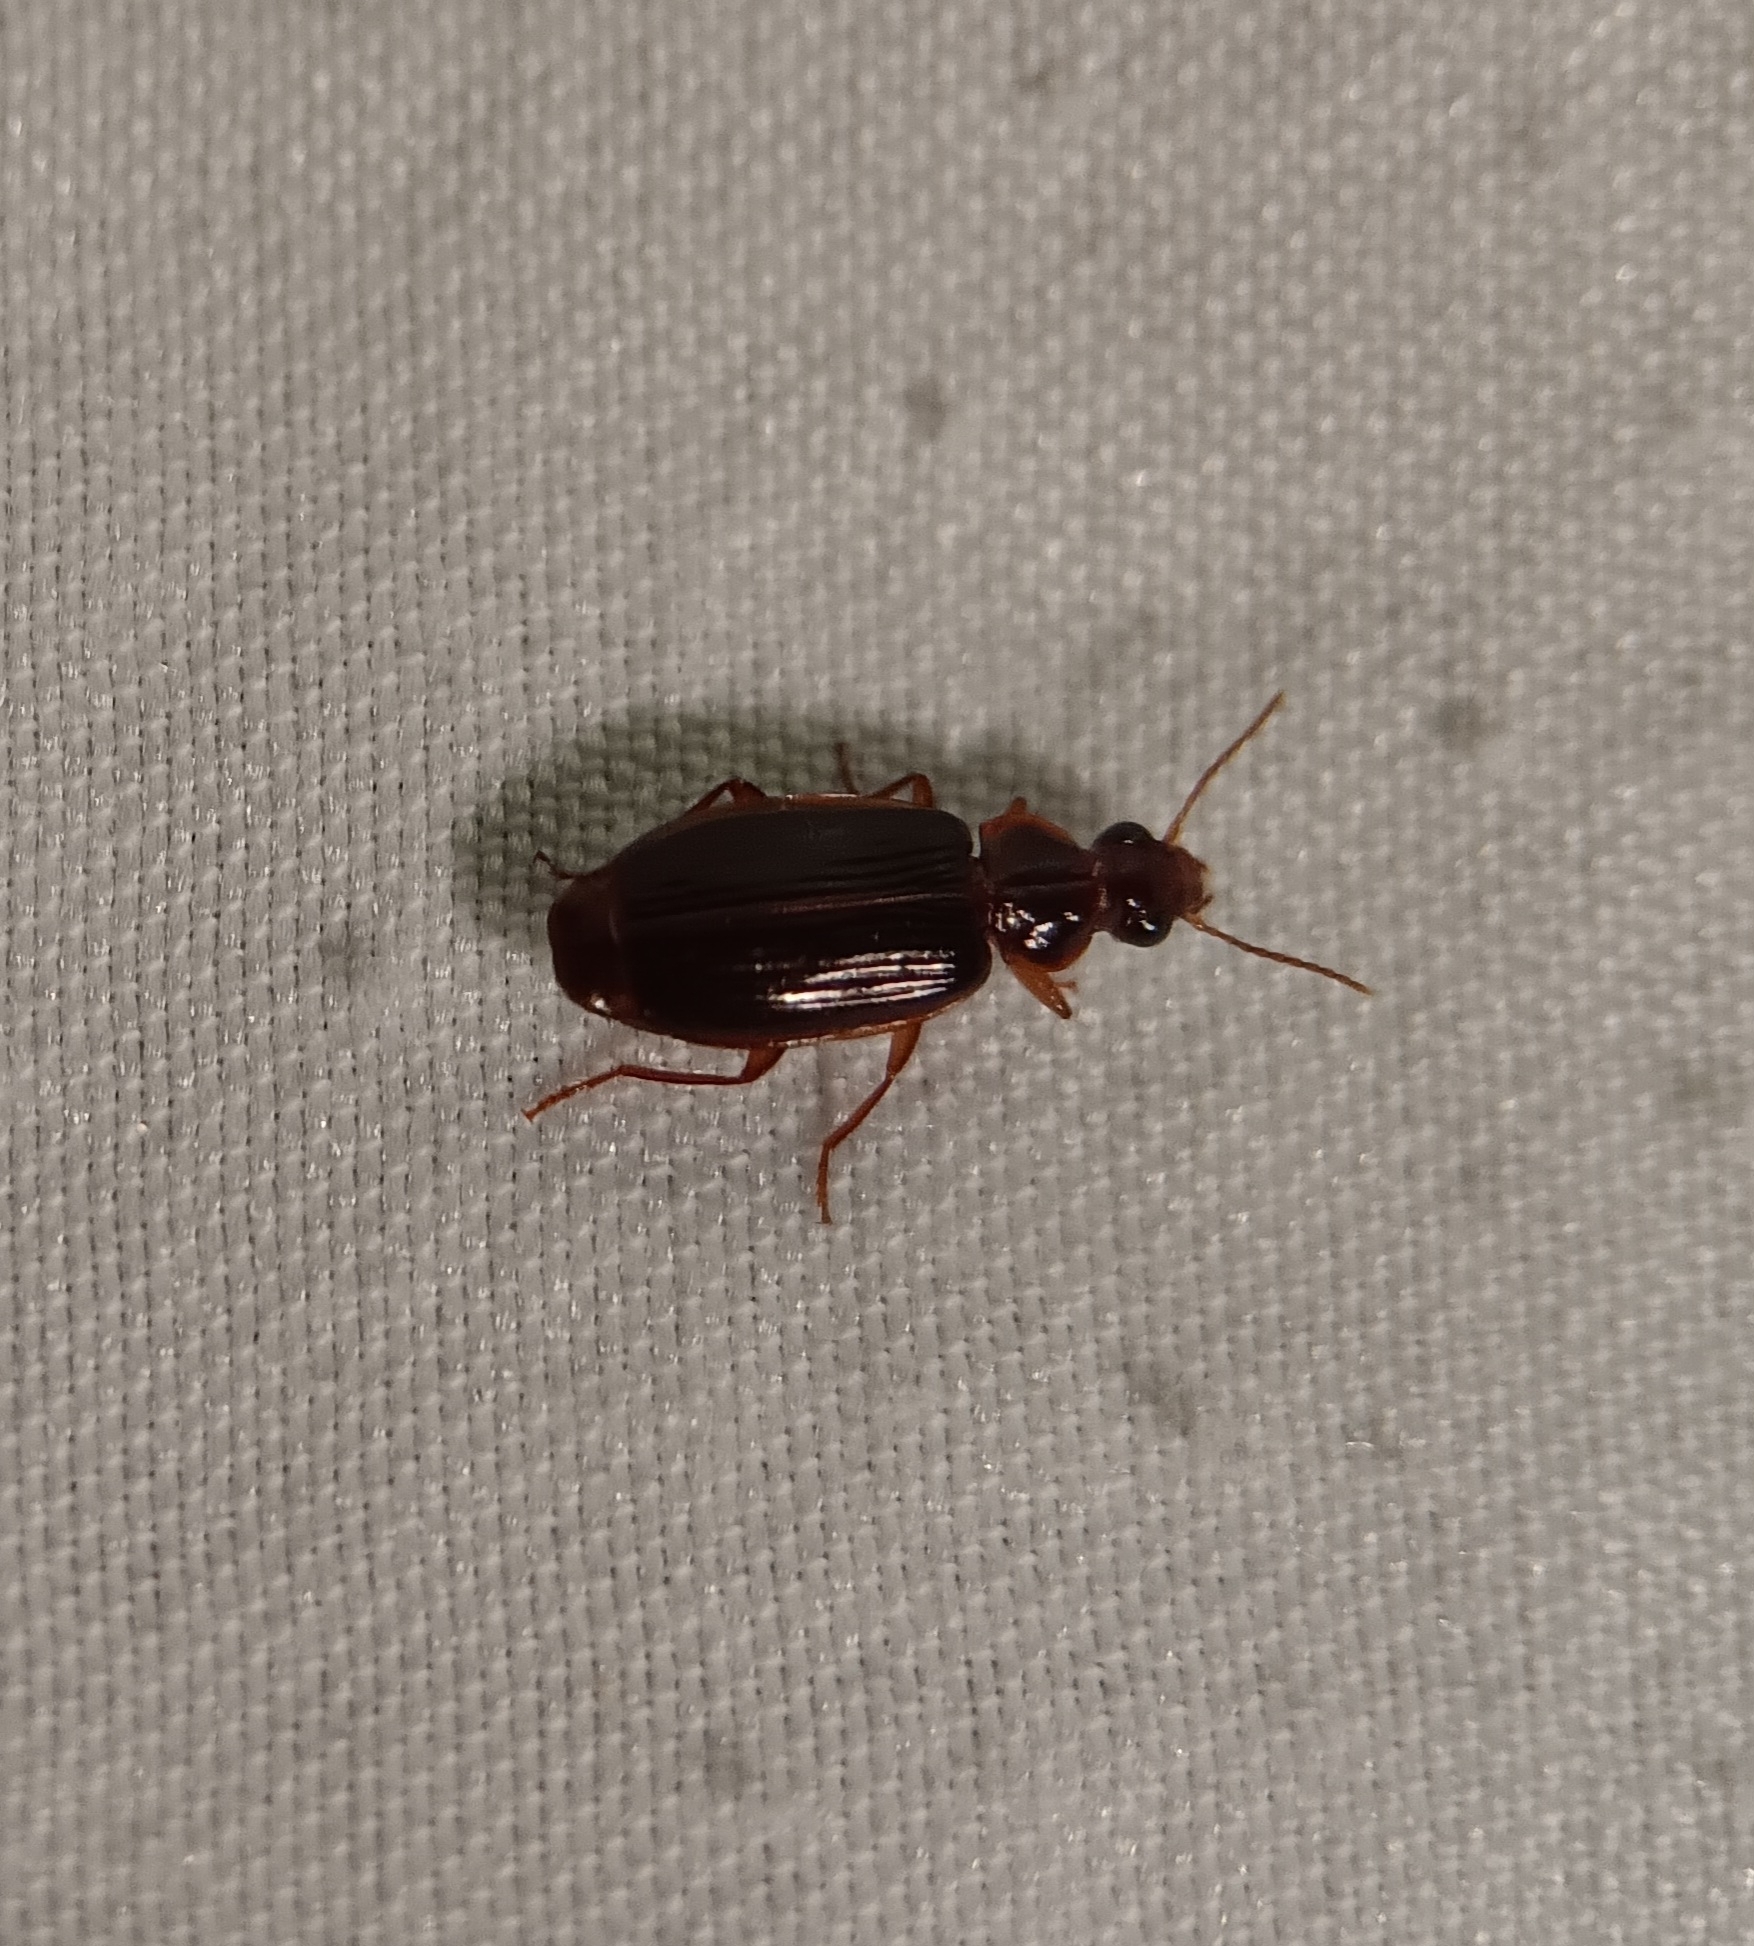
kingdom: Animalia
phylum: Arthropoda
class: Insecta
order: Coleoptera
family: Carabidae
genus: Plochionus
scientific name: Plochionus timidus
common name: Timid harp ground beetle
